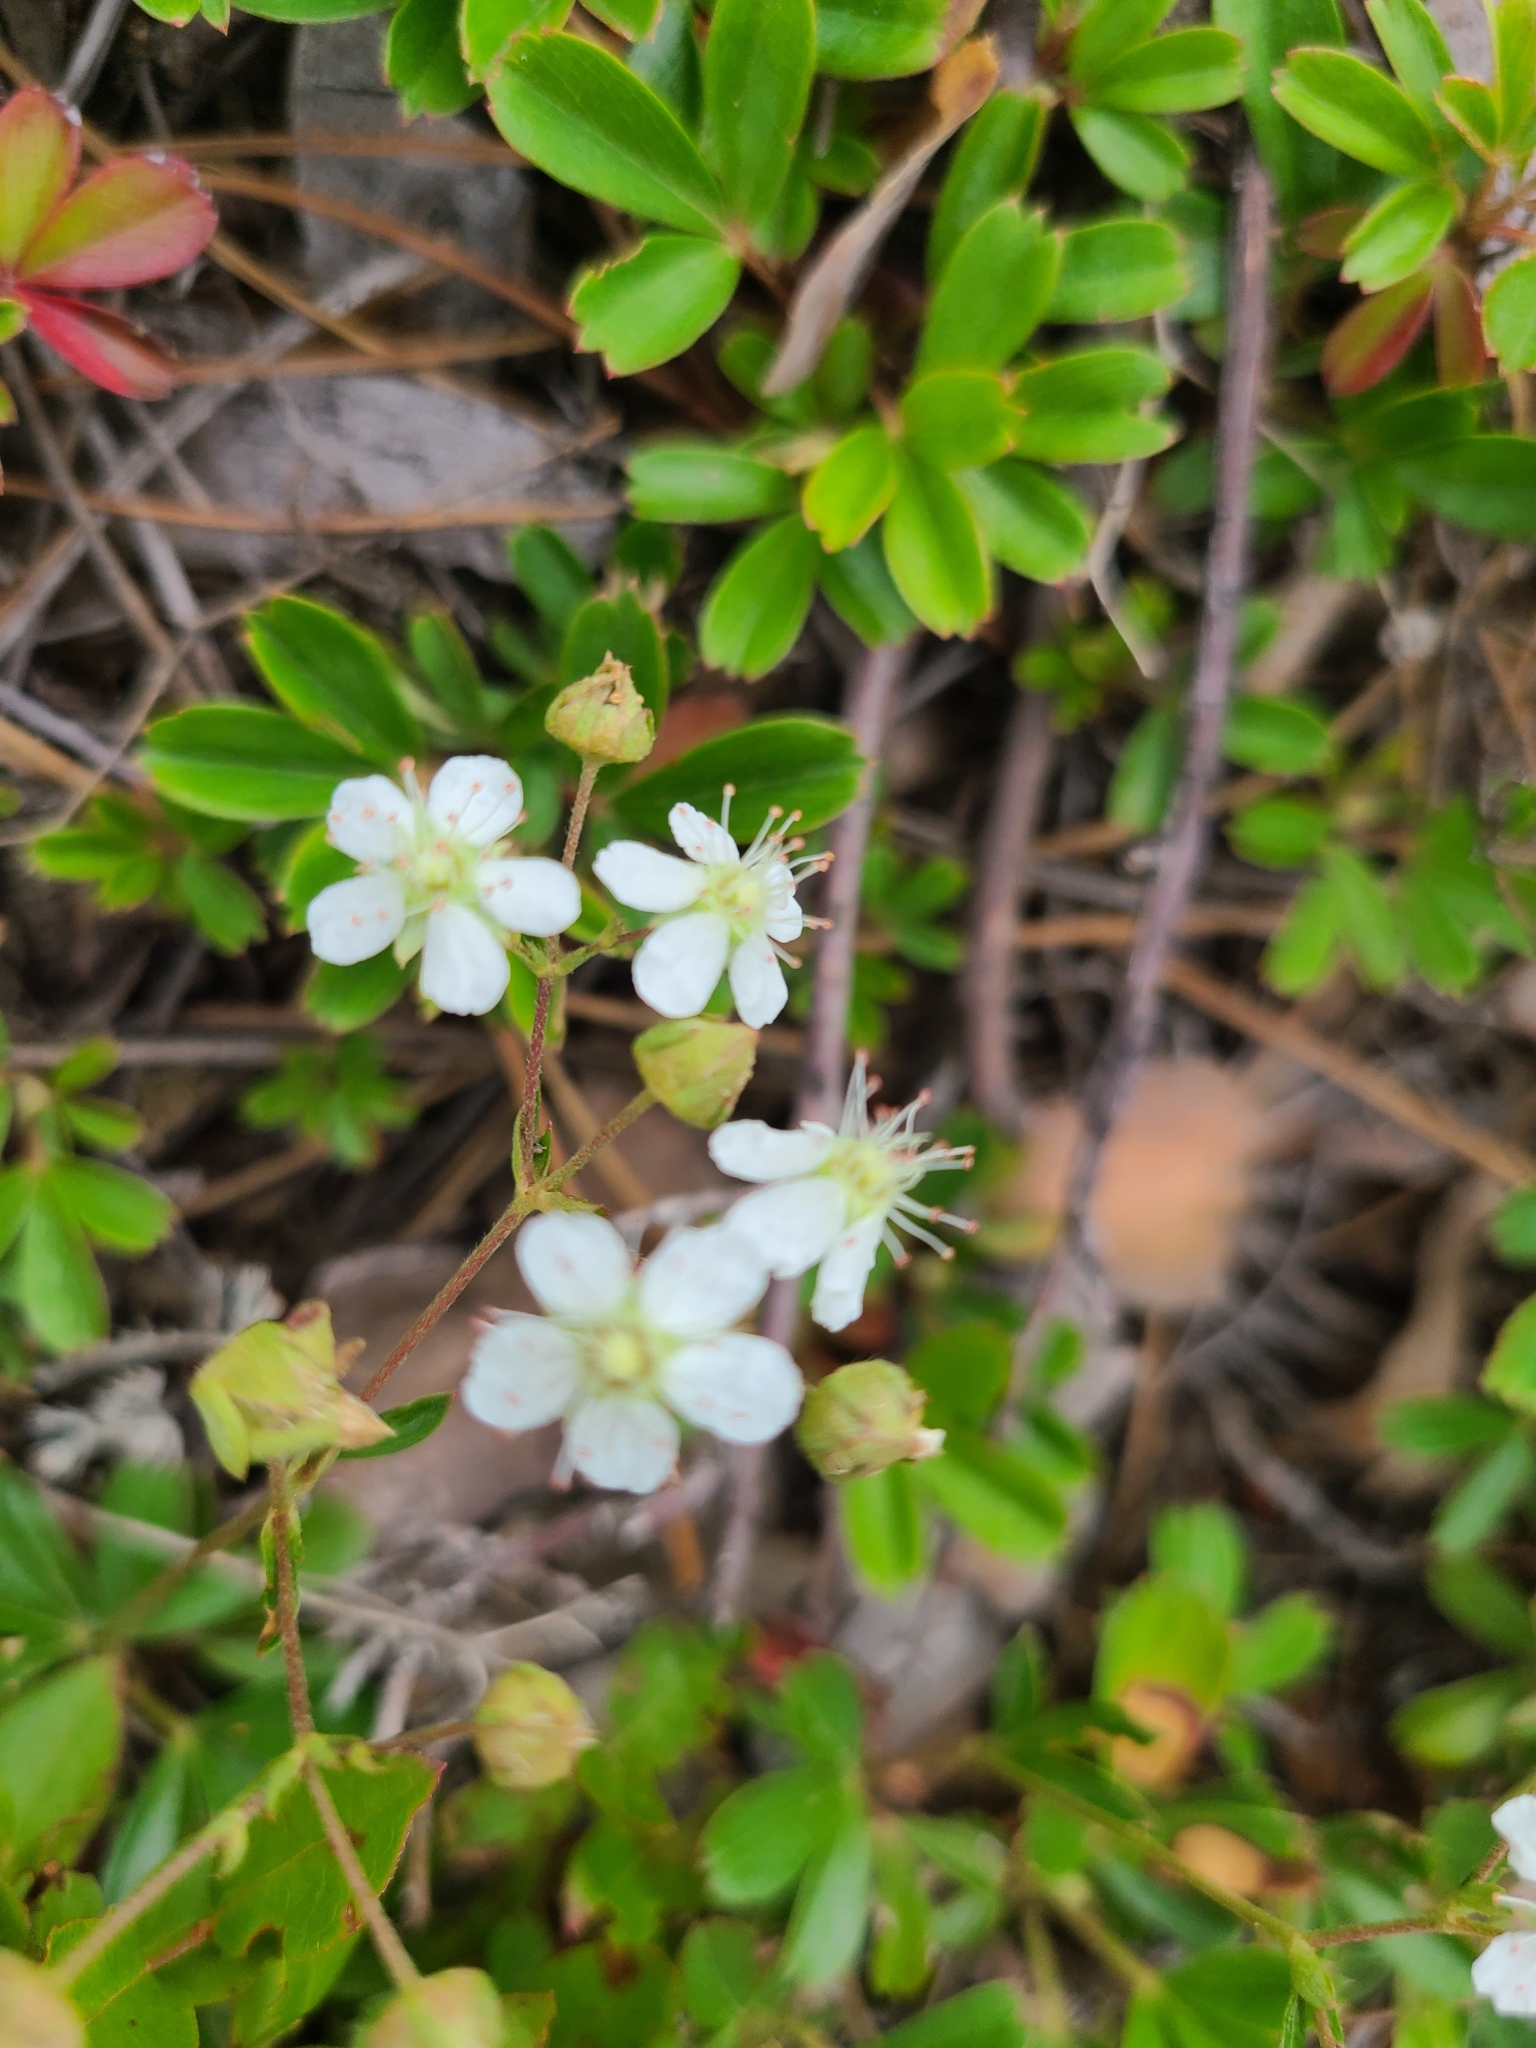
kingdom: Plantae
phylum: Tracheophyta
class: Magnoliopsida
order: Rosales
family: Rosaceae
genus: Sibbaldia
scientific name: Sibbaldia tridentata
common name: Three-toothed cinquefoil
